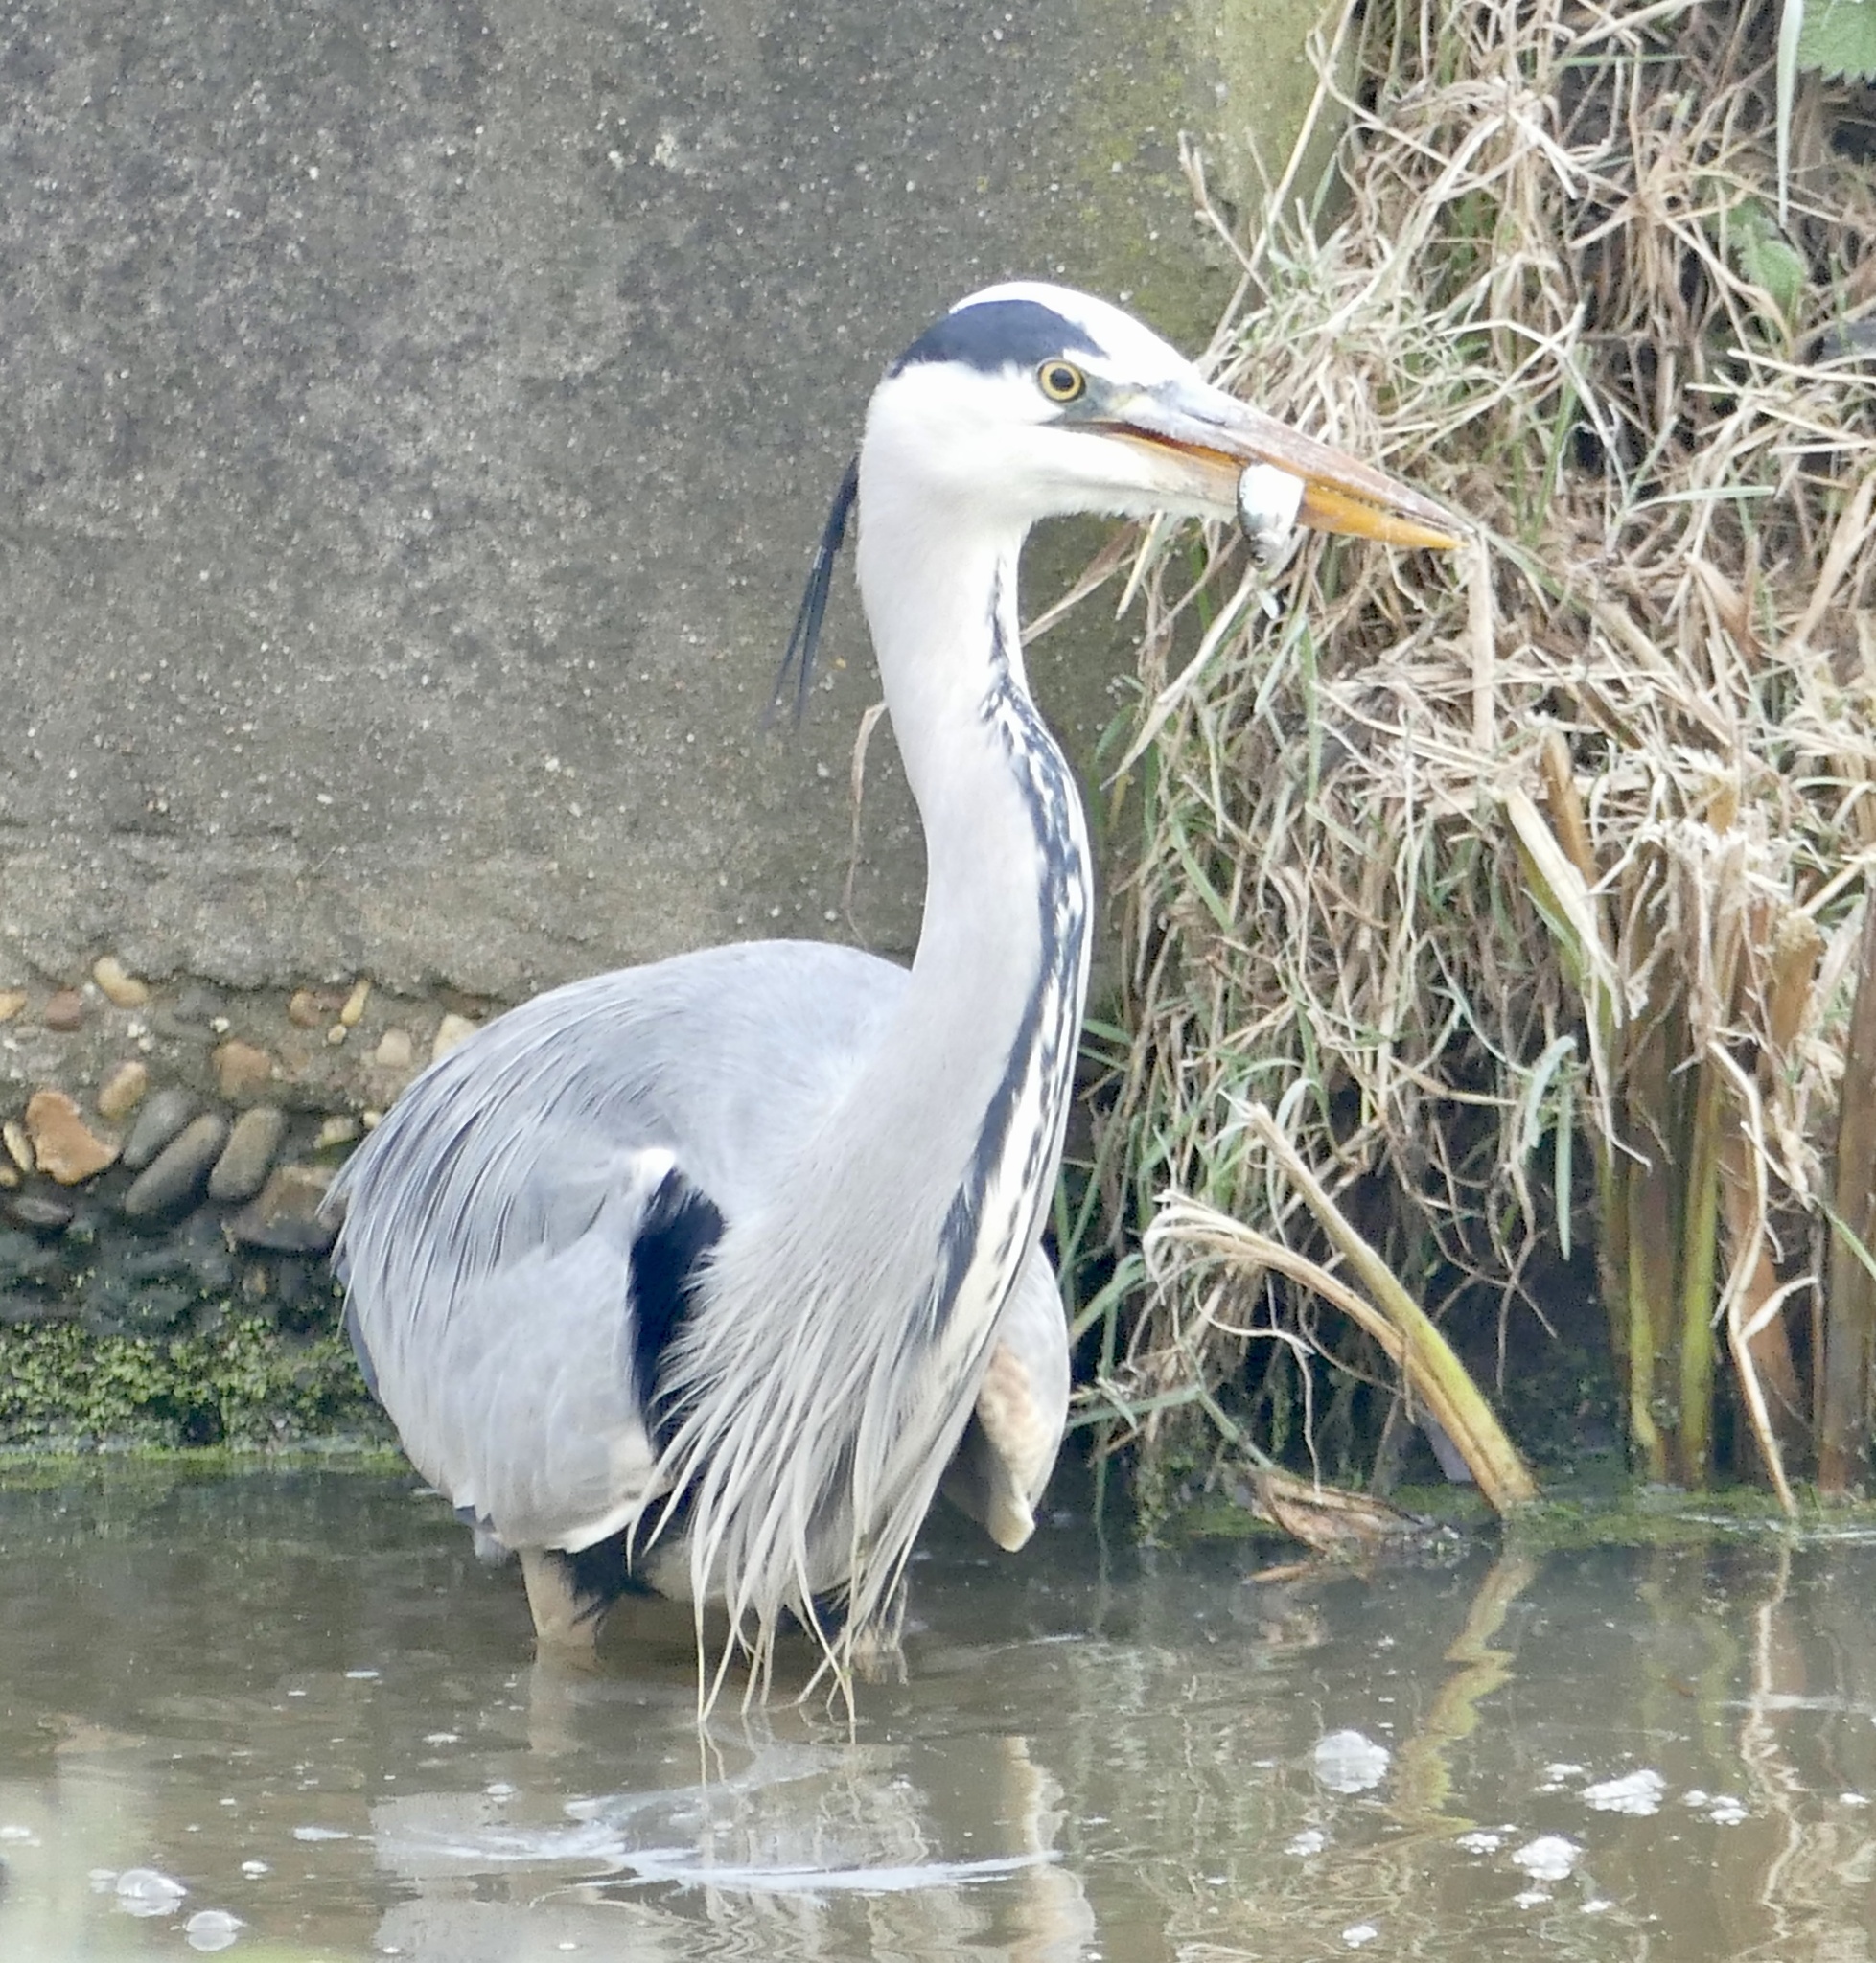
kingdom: Animalia
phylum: Chordata
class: Aves
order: Pelecaniformes
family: Ardeidae
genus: Ardea
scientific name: Ardea cinerea
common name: Grey heron
